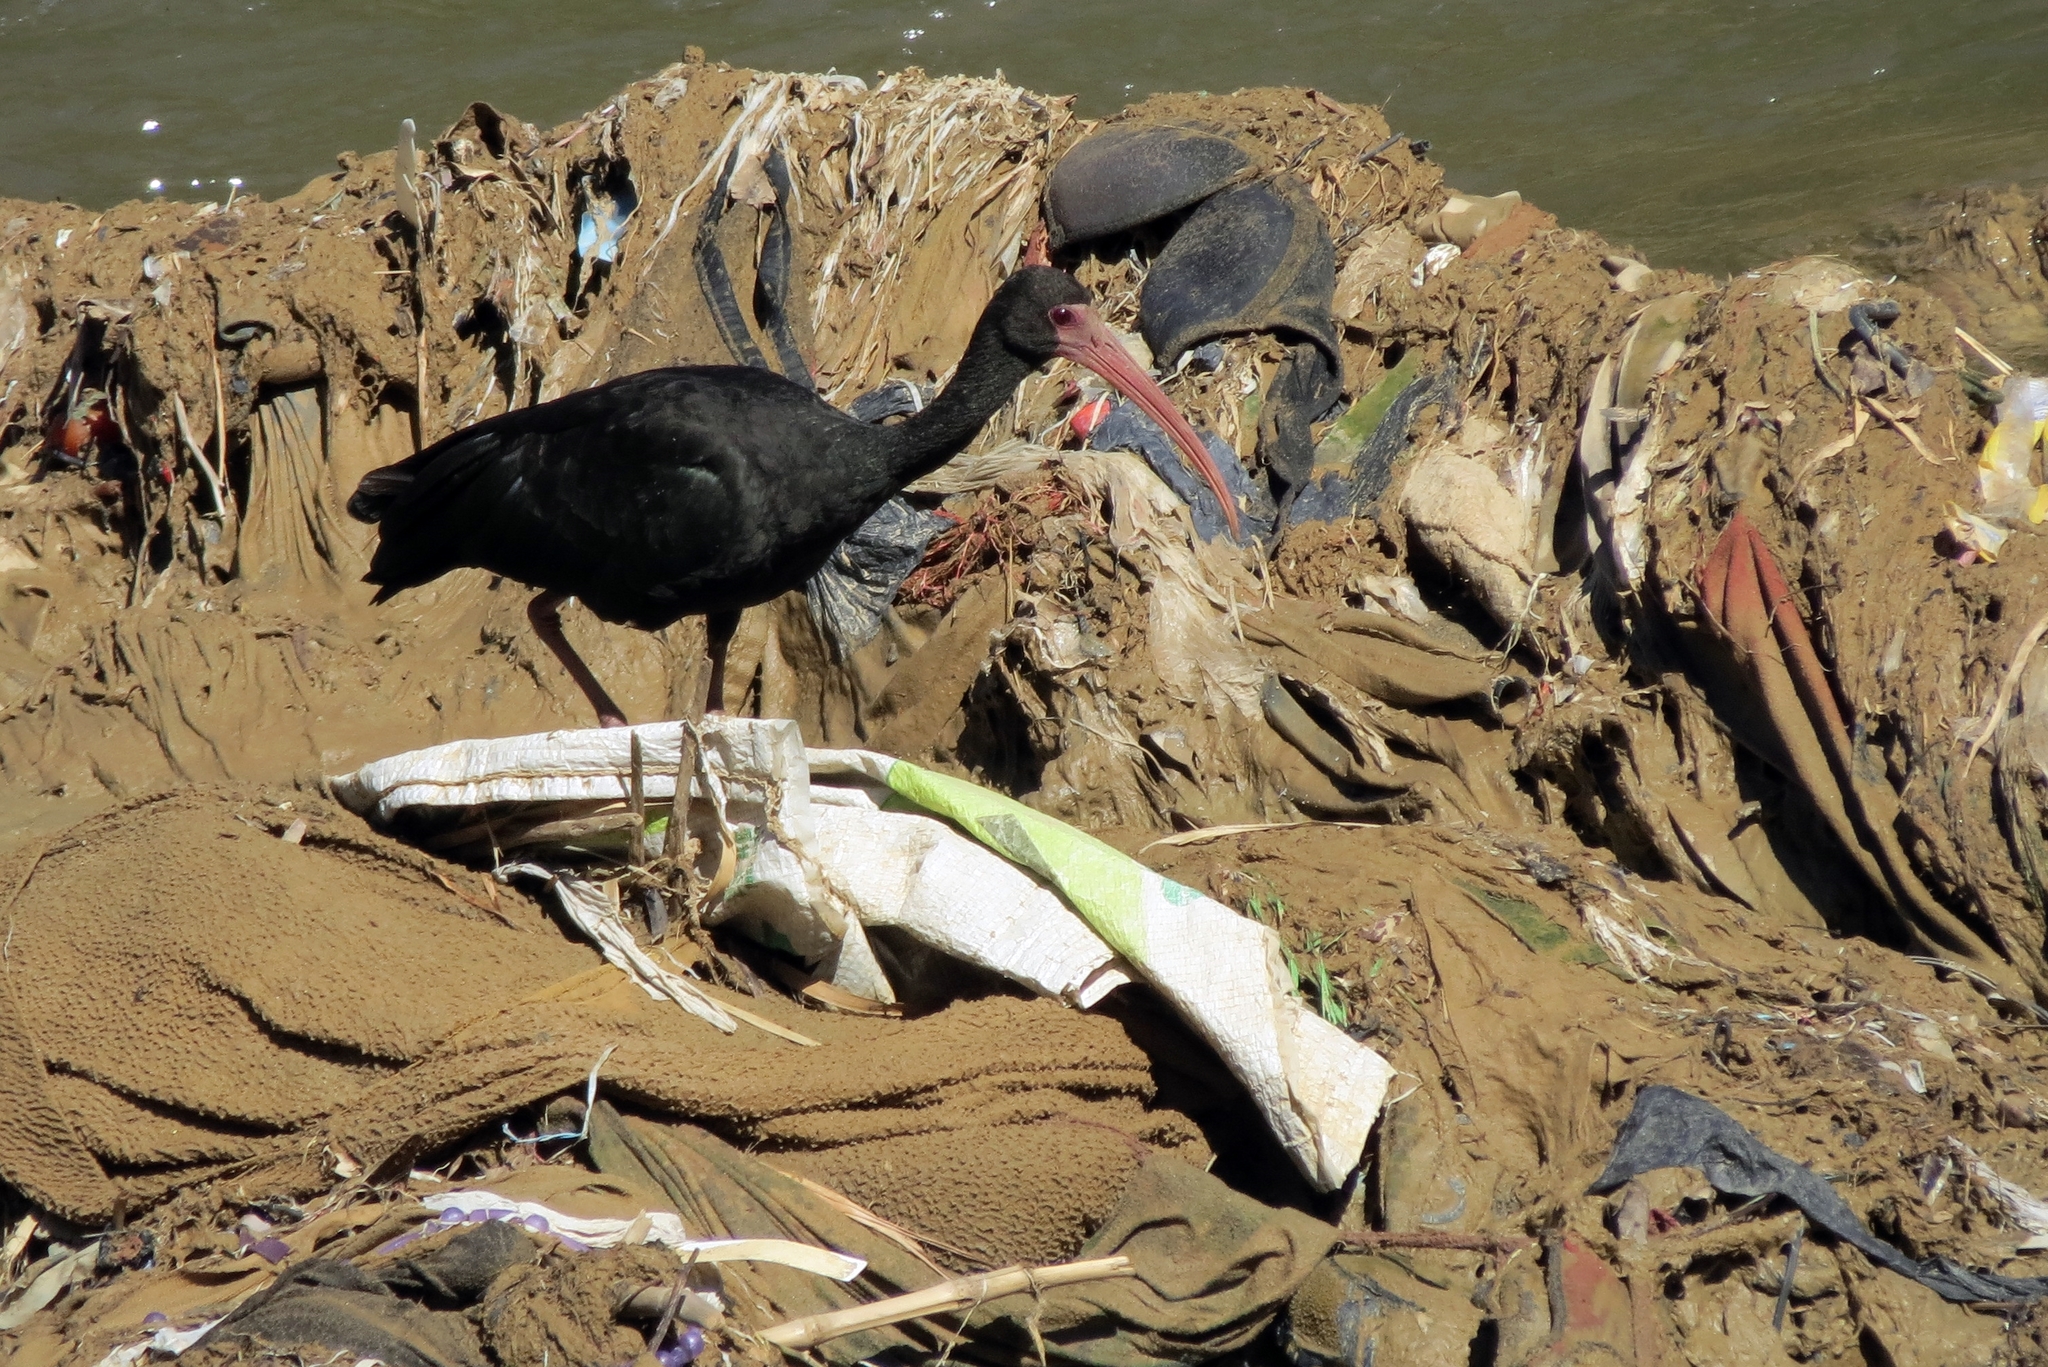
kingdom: Animalia
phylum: Chordata
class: Aves
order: Pelecaniformes
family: Threskiornithidae
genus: Phimosus
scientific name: Phimosus infuscatus
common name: Bare-faced ibis
